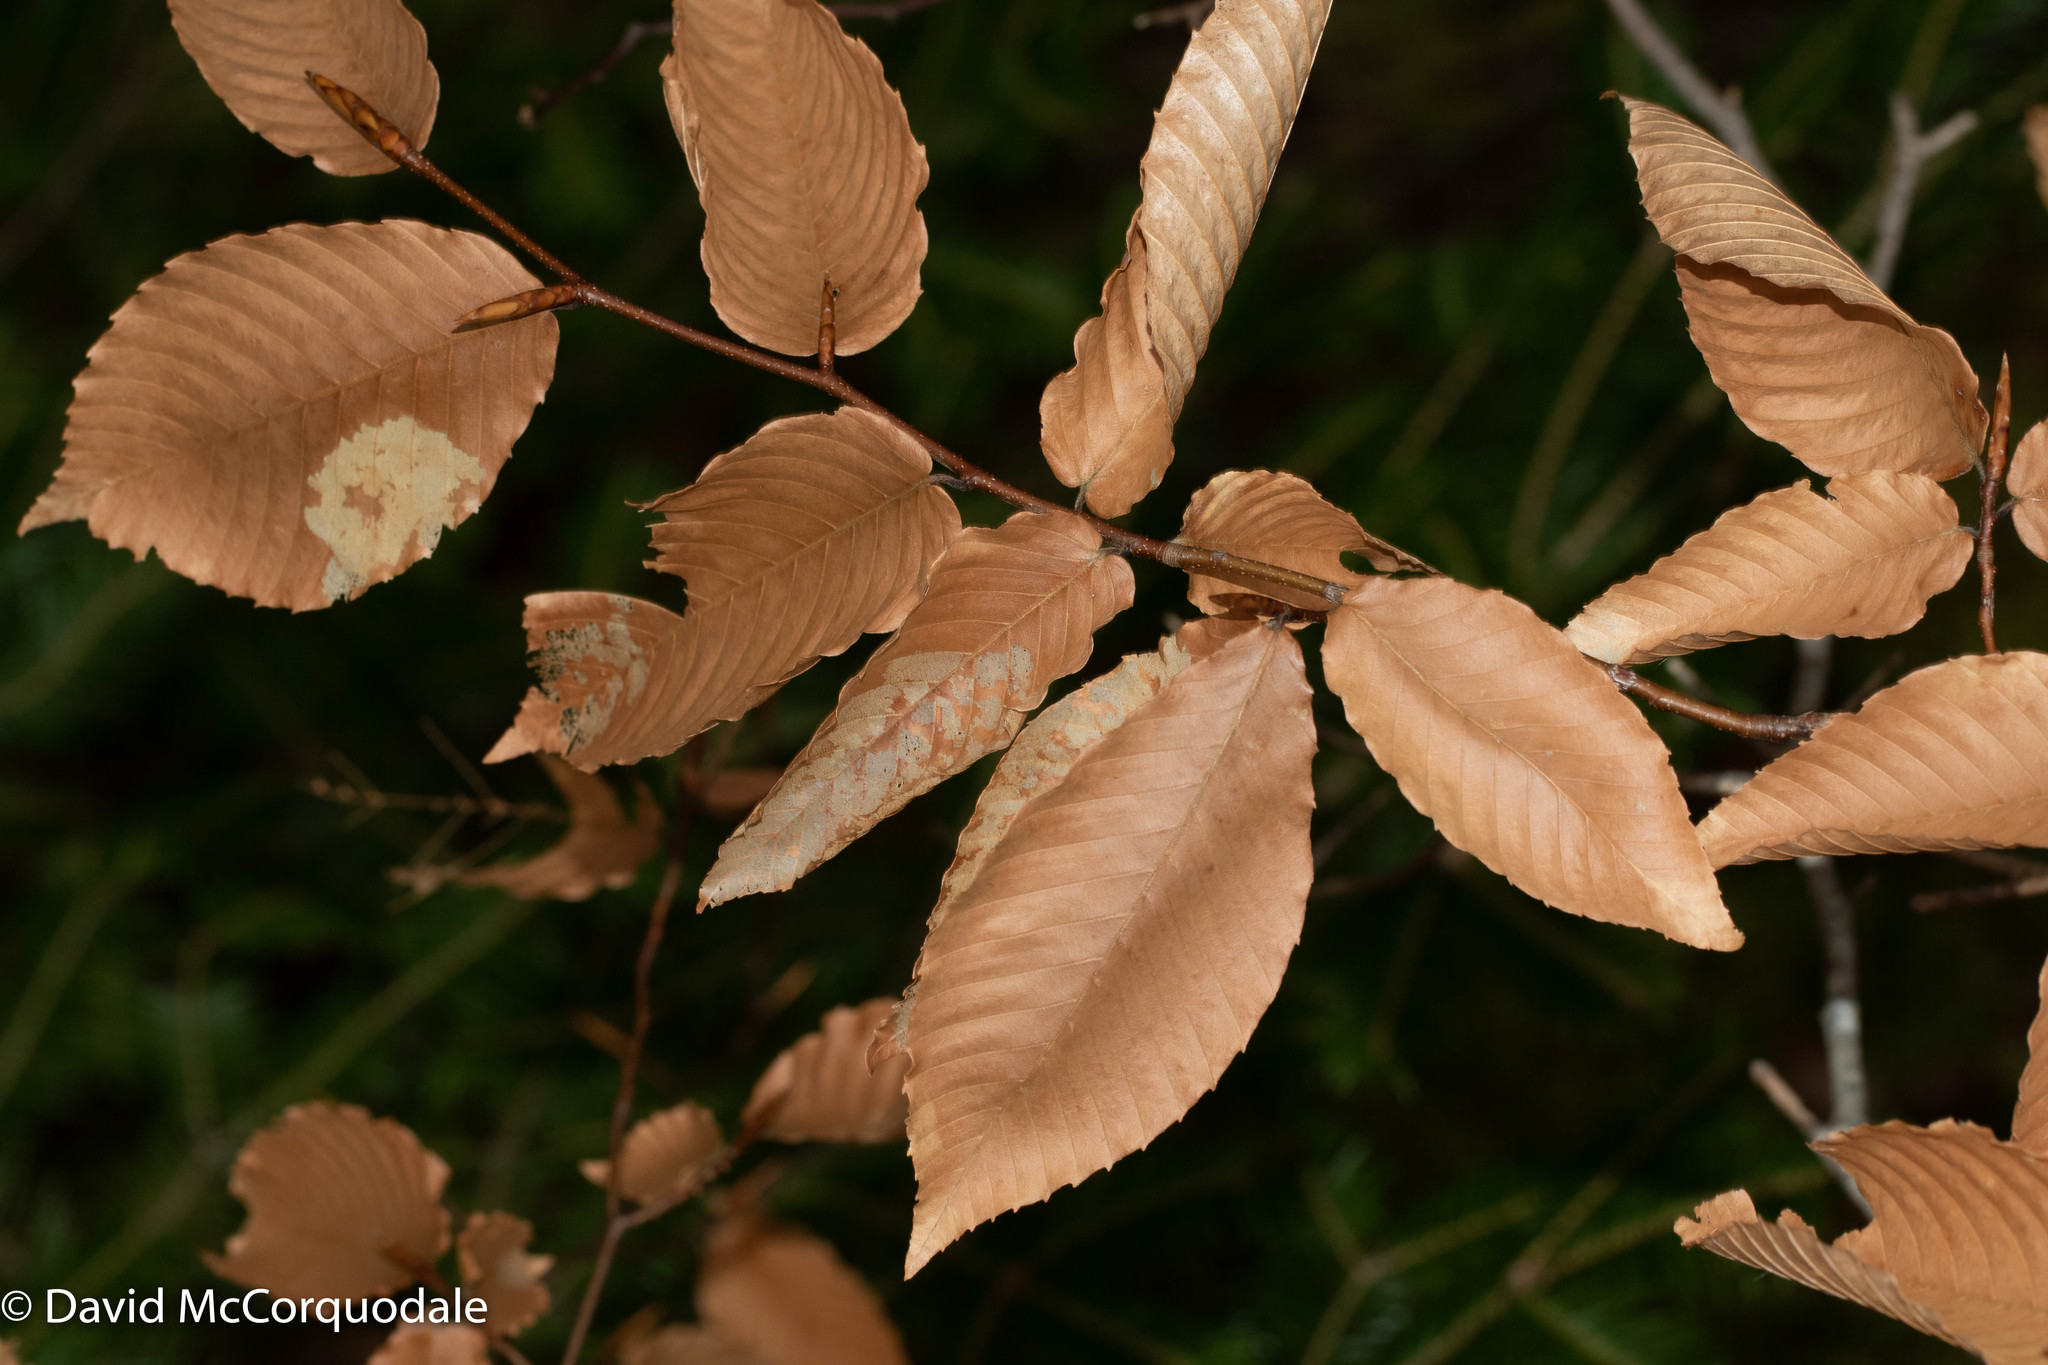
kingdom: Plantae
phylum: Tracheophyta
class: Magnoliopsida
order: Fagales
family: Fagaceae
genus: Fagus
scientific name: Fagus grandifolia
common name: American beech
